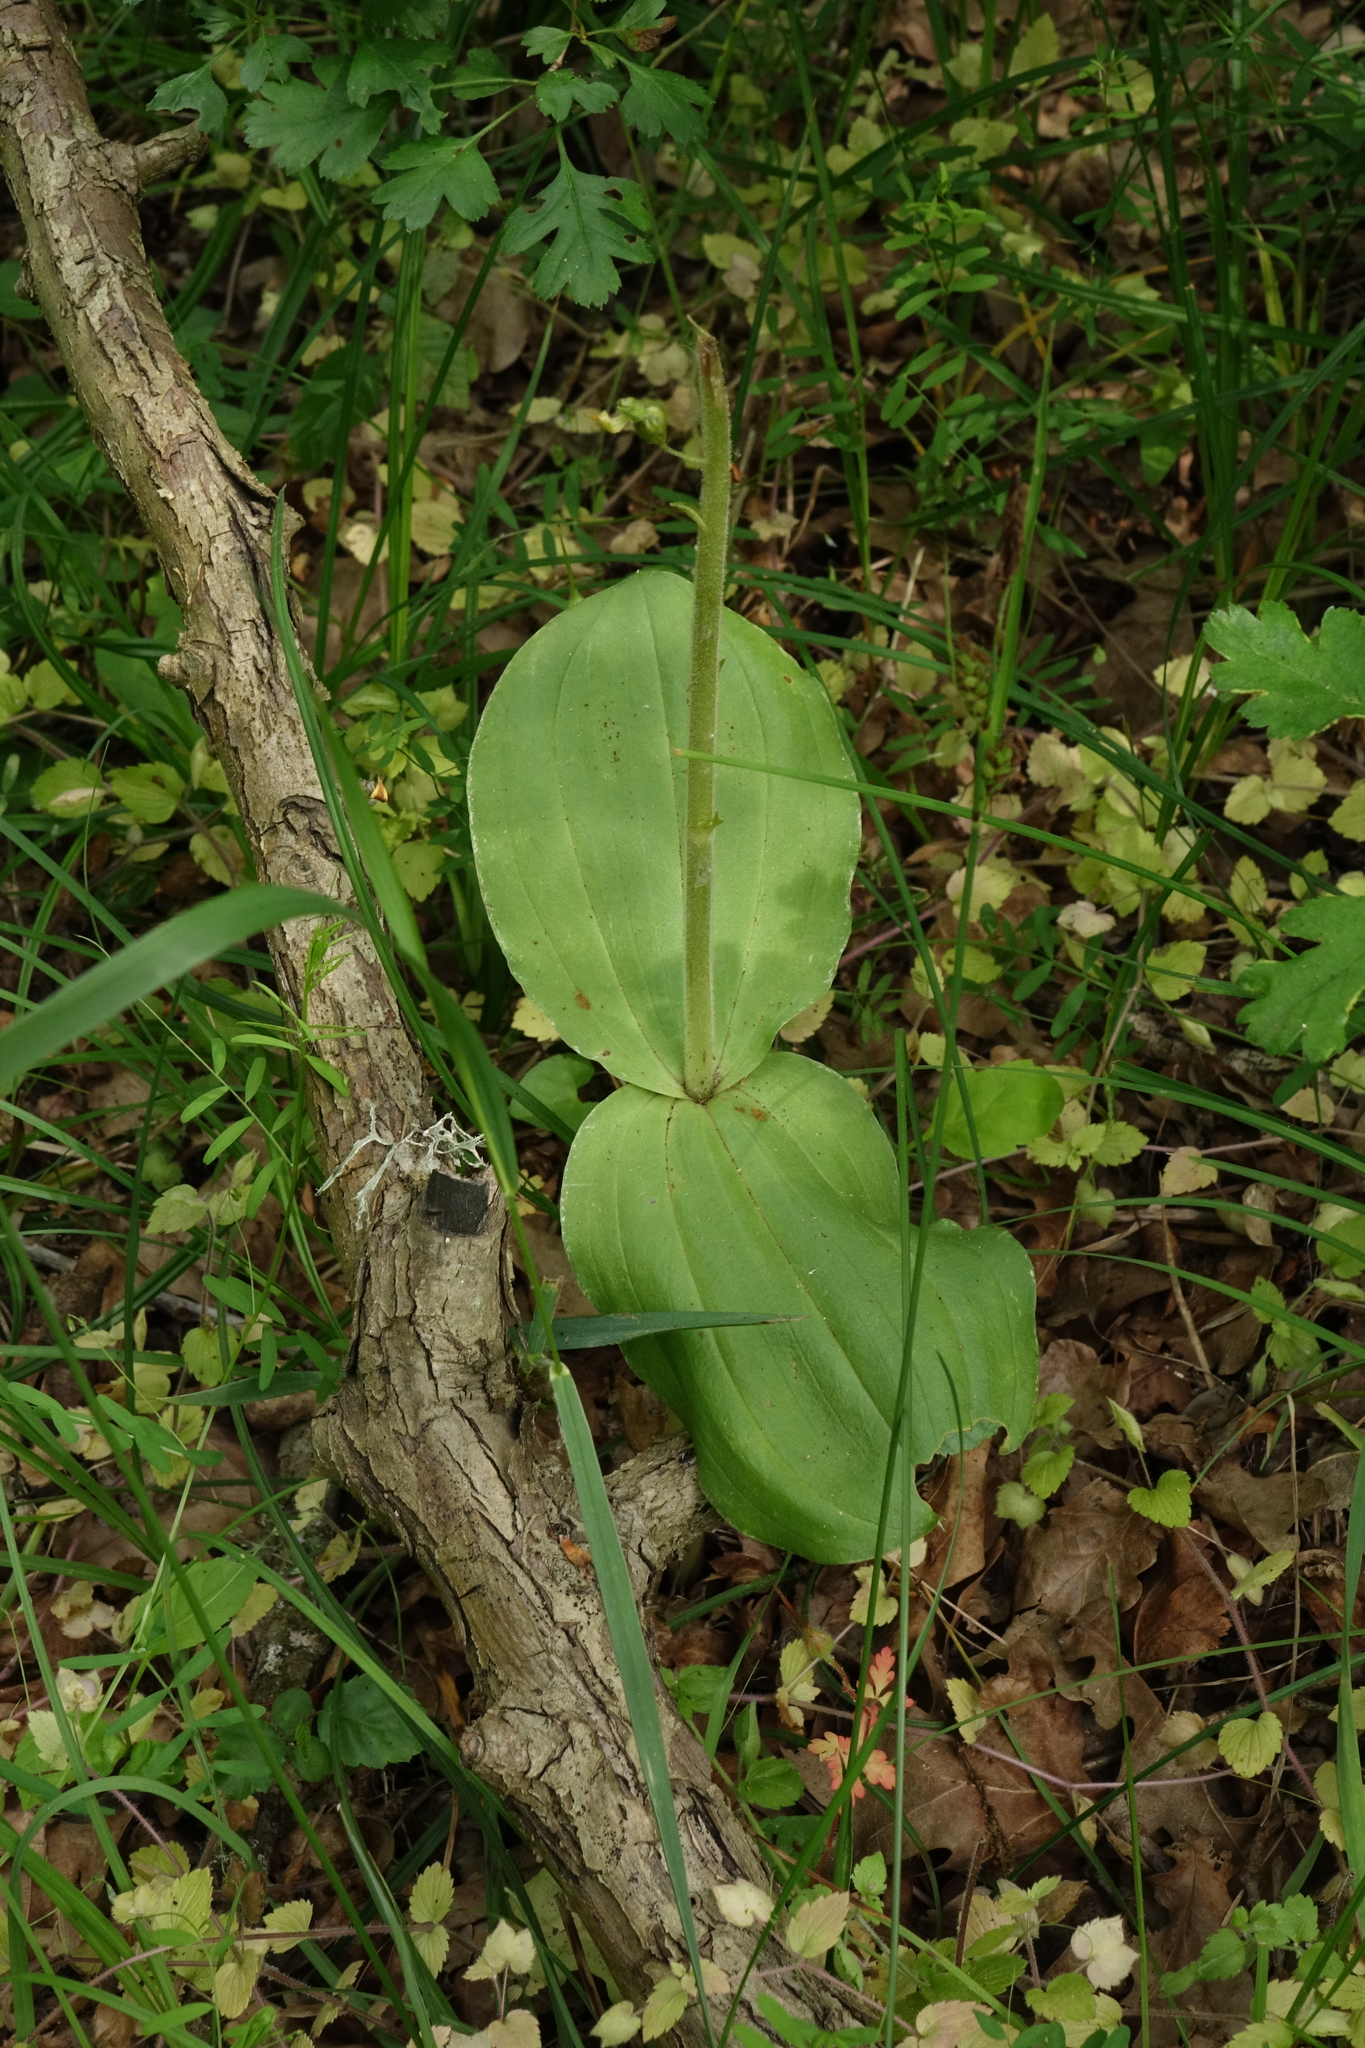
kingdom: Plantae
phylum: Tracheophyta
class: Liliopsida
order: Asparagales
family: Orchidaceae
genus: Neottia
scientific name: Neottia ovata
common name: Common twayblade
